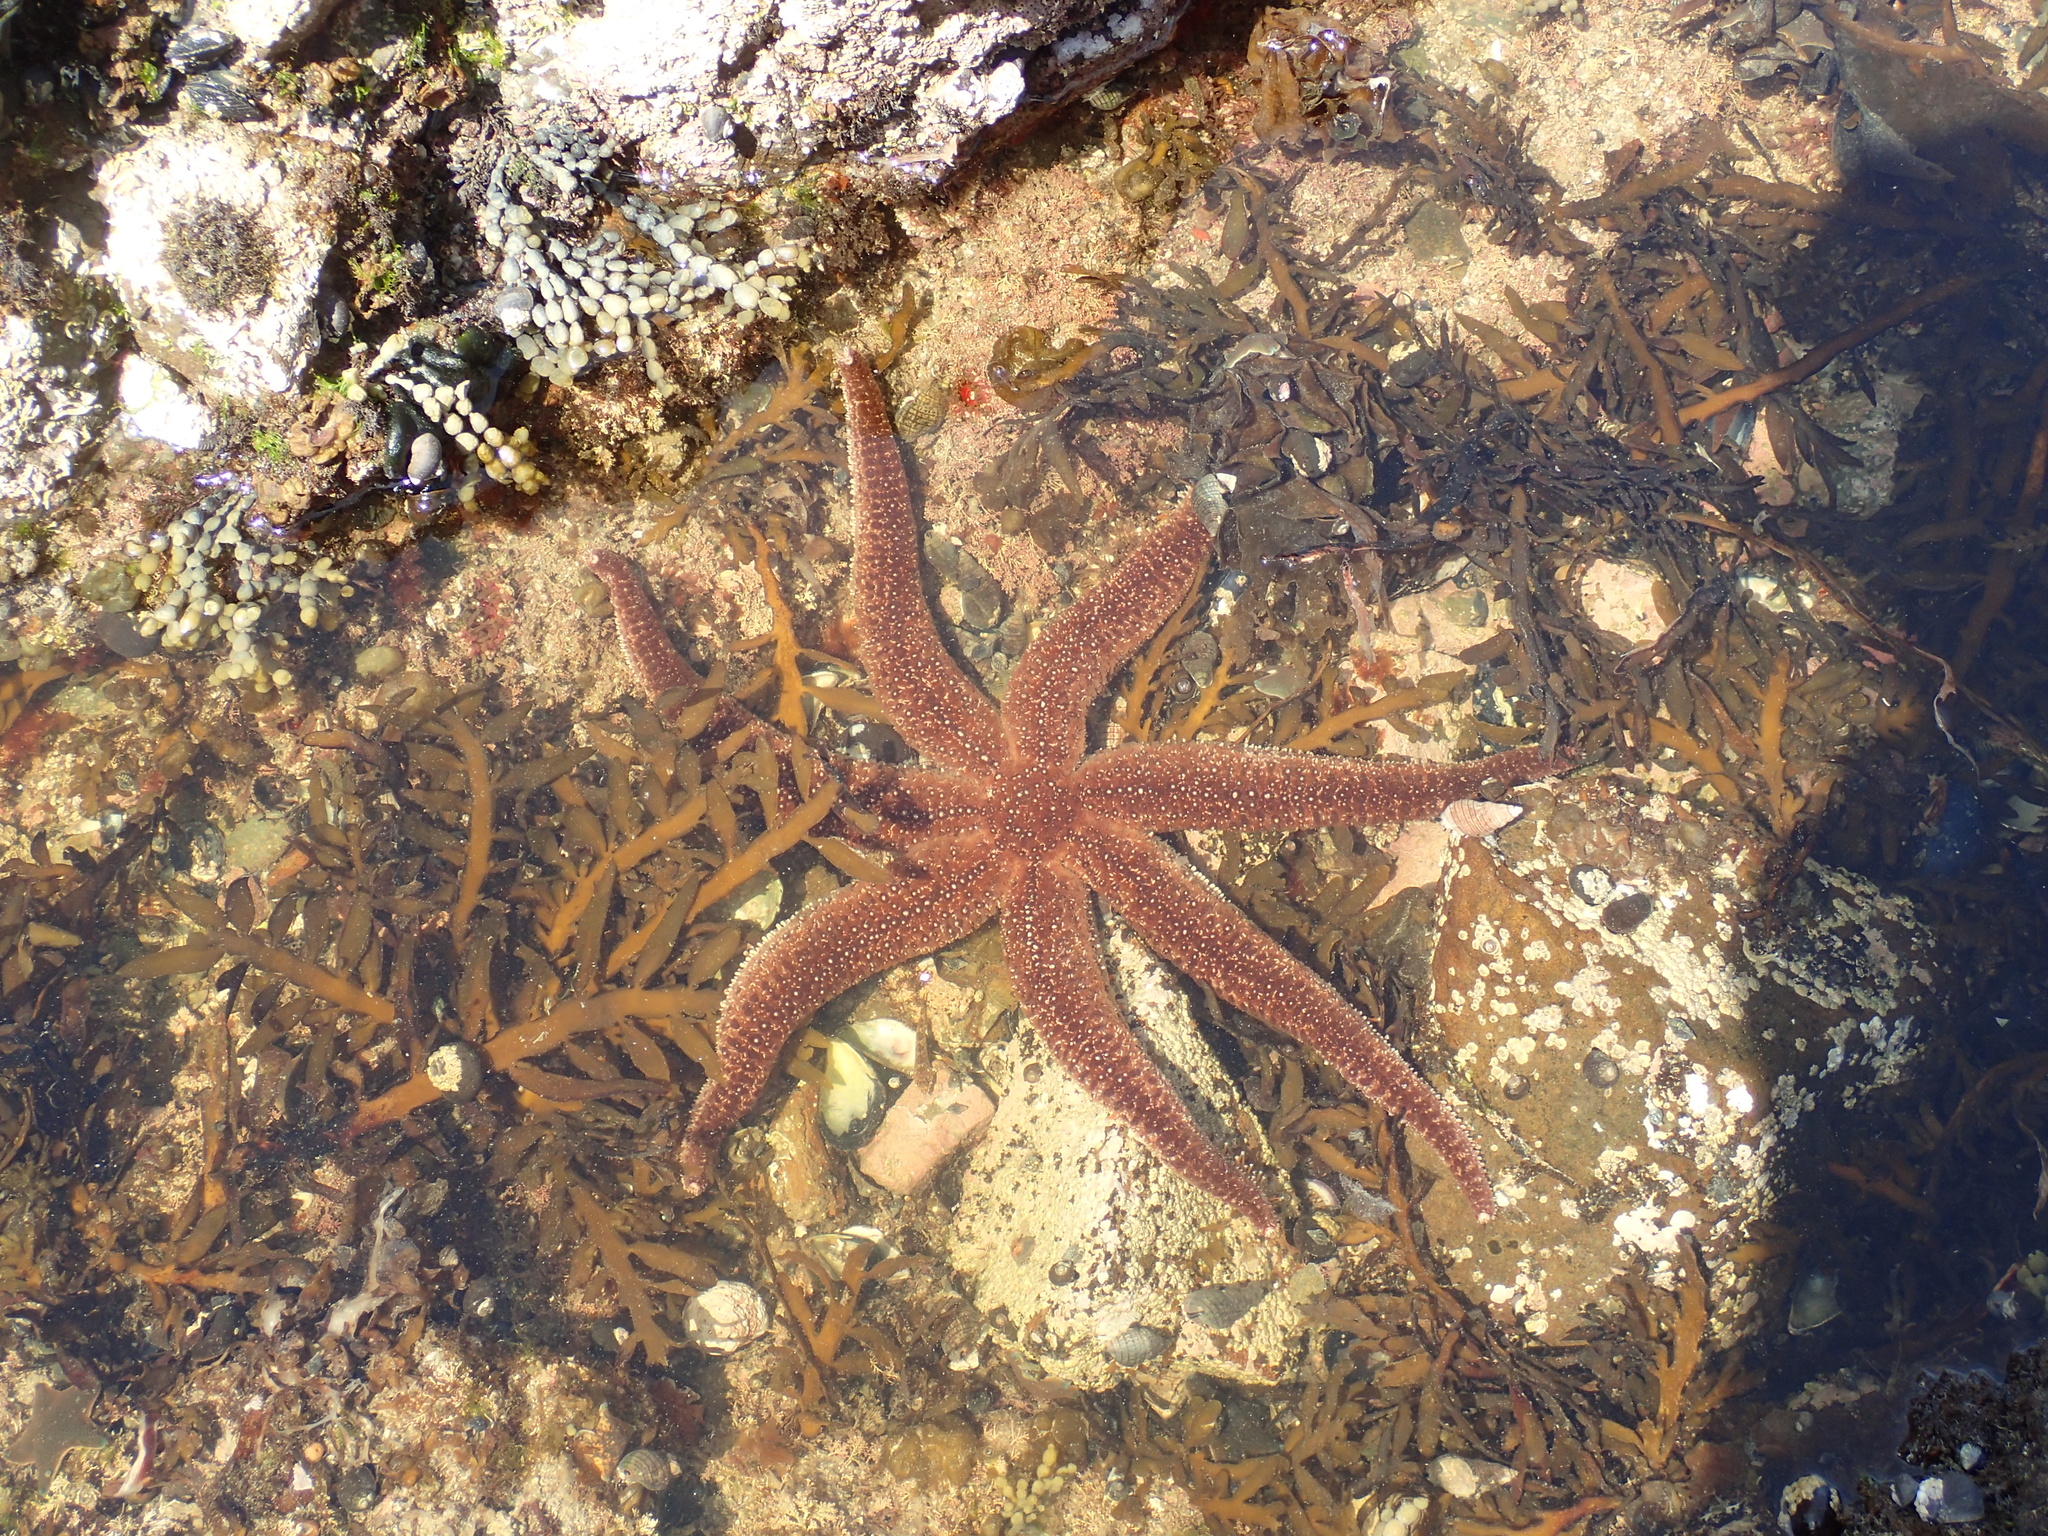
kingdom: Animalia
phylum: Echinodermata
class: Asteroidea
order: Forcipulatida
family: Asteriidae
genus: Astrostole
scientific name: Astrostole scabra
